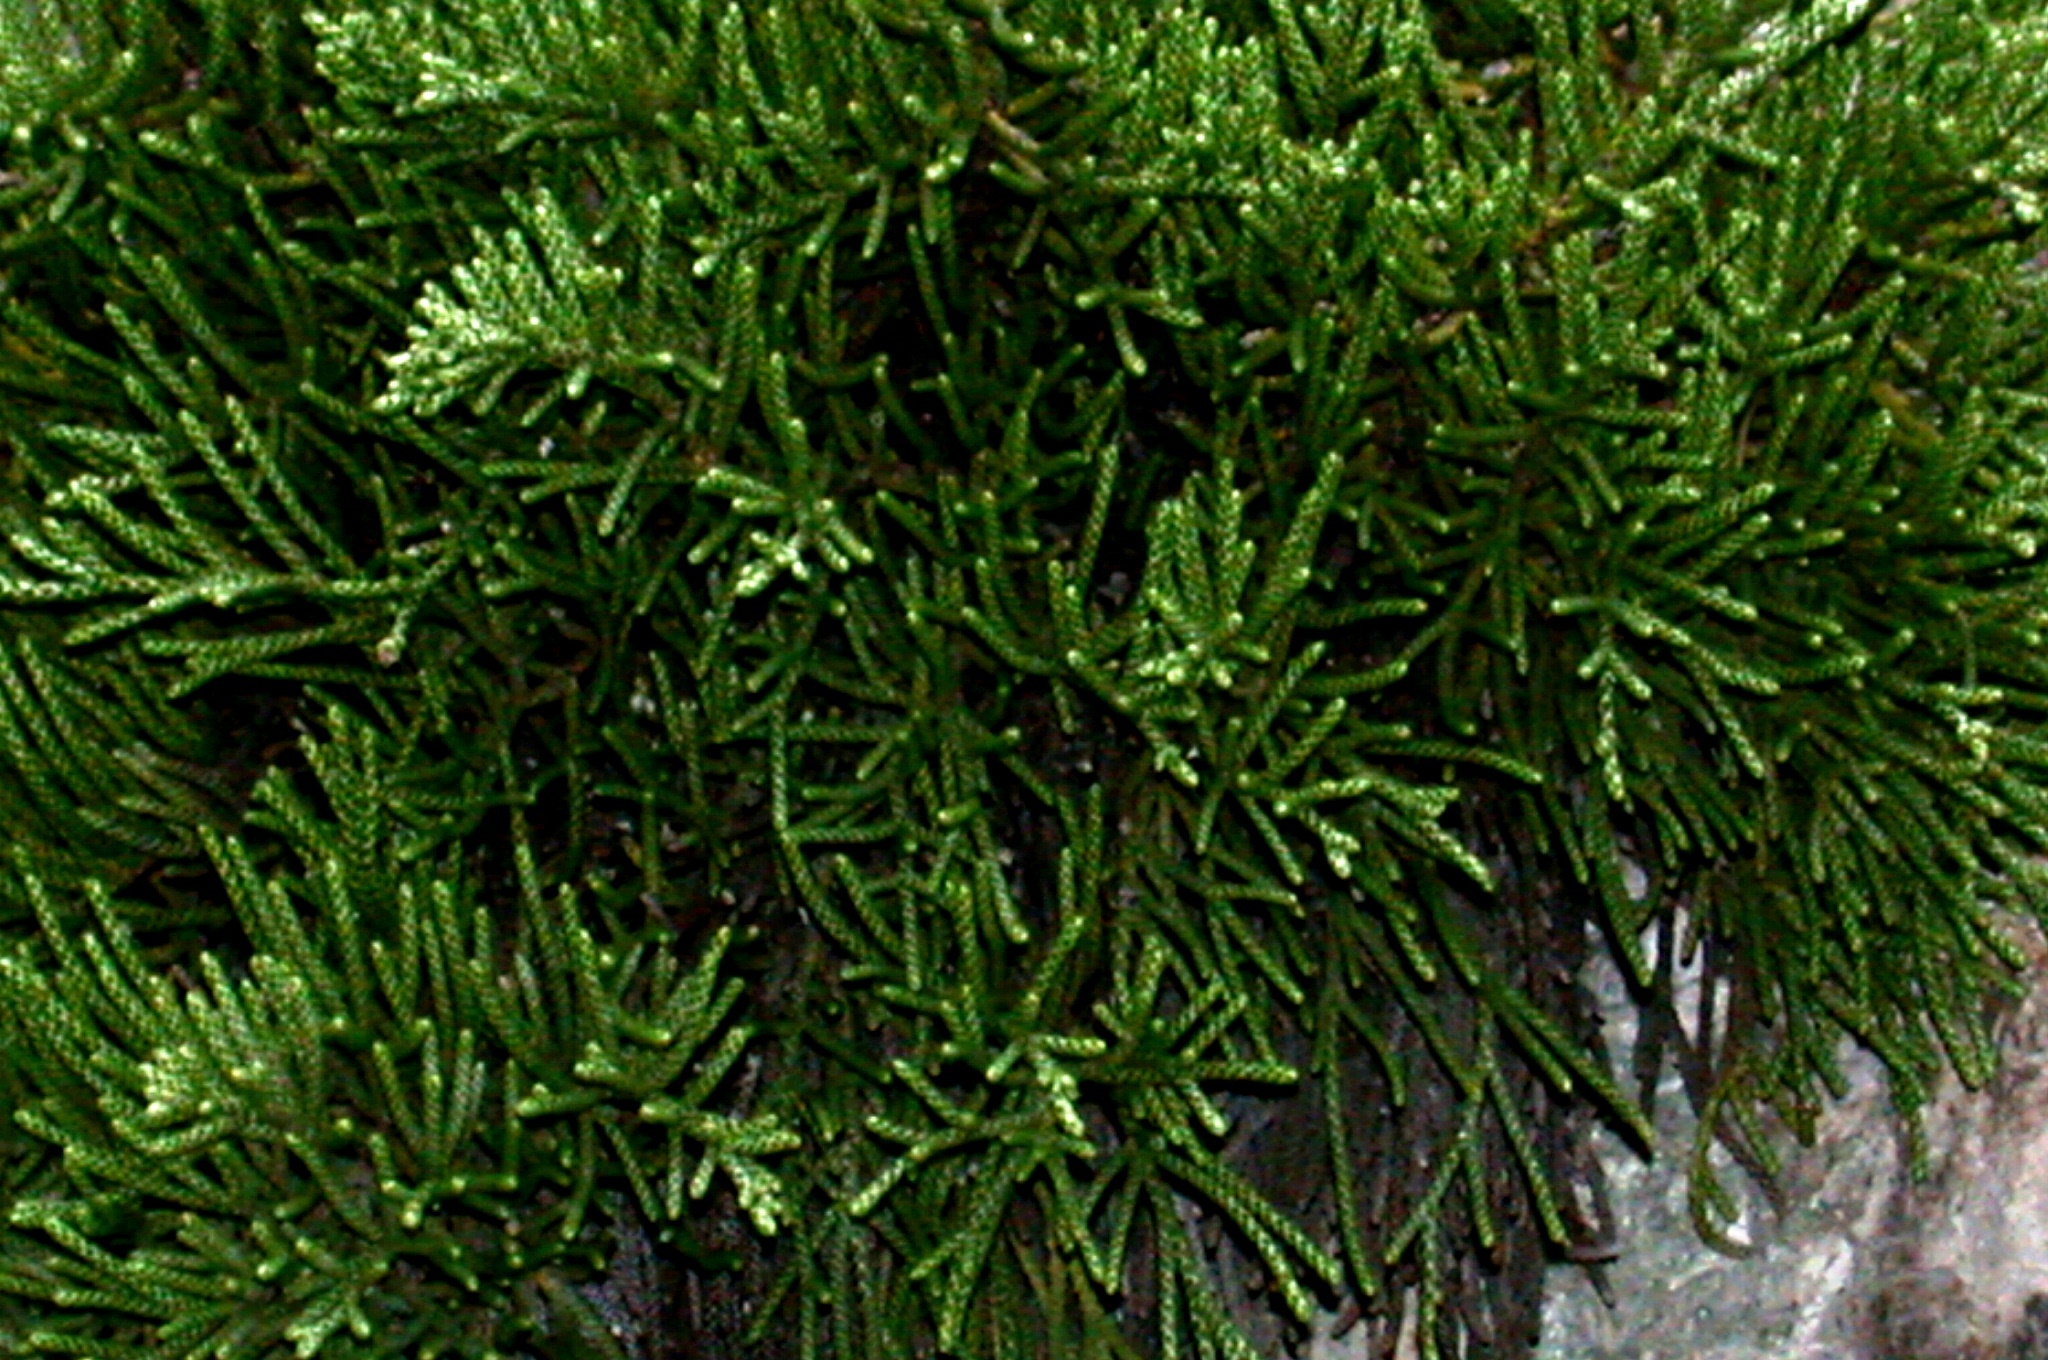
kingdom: Plantae
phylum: Tracheophyta
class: Magnoliopsida
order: Asterales
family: Asteraceae
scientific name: Asteraceae
